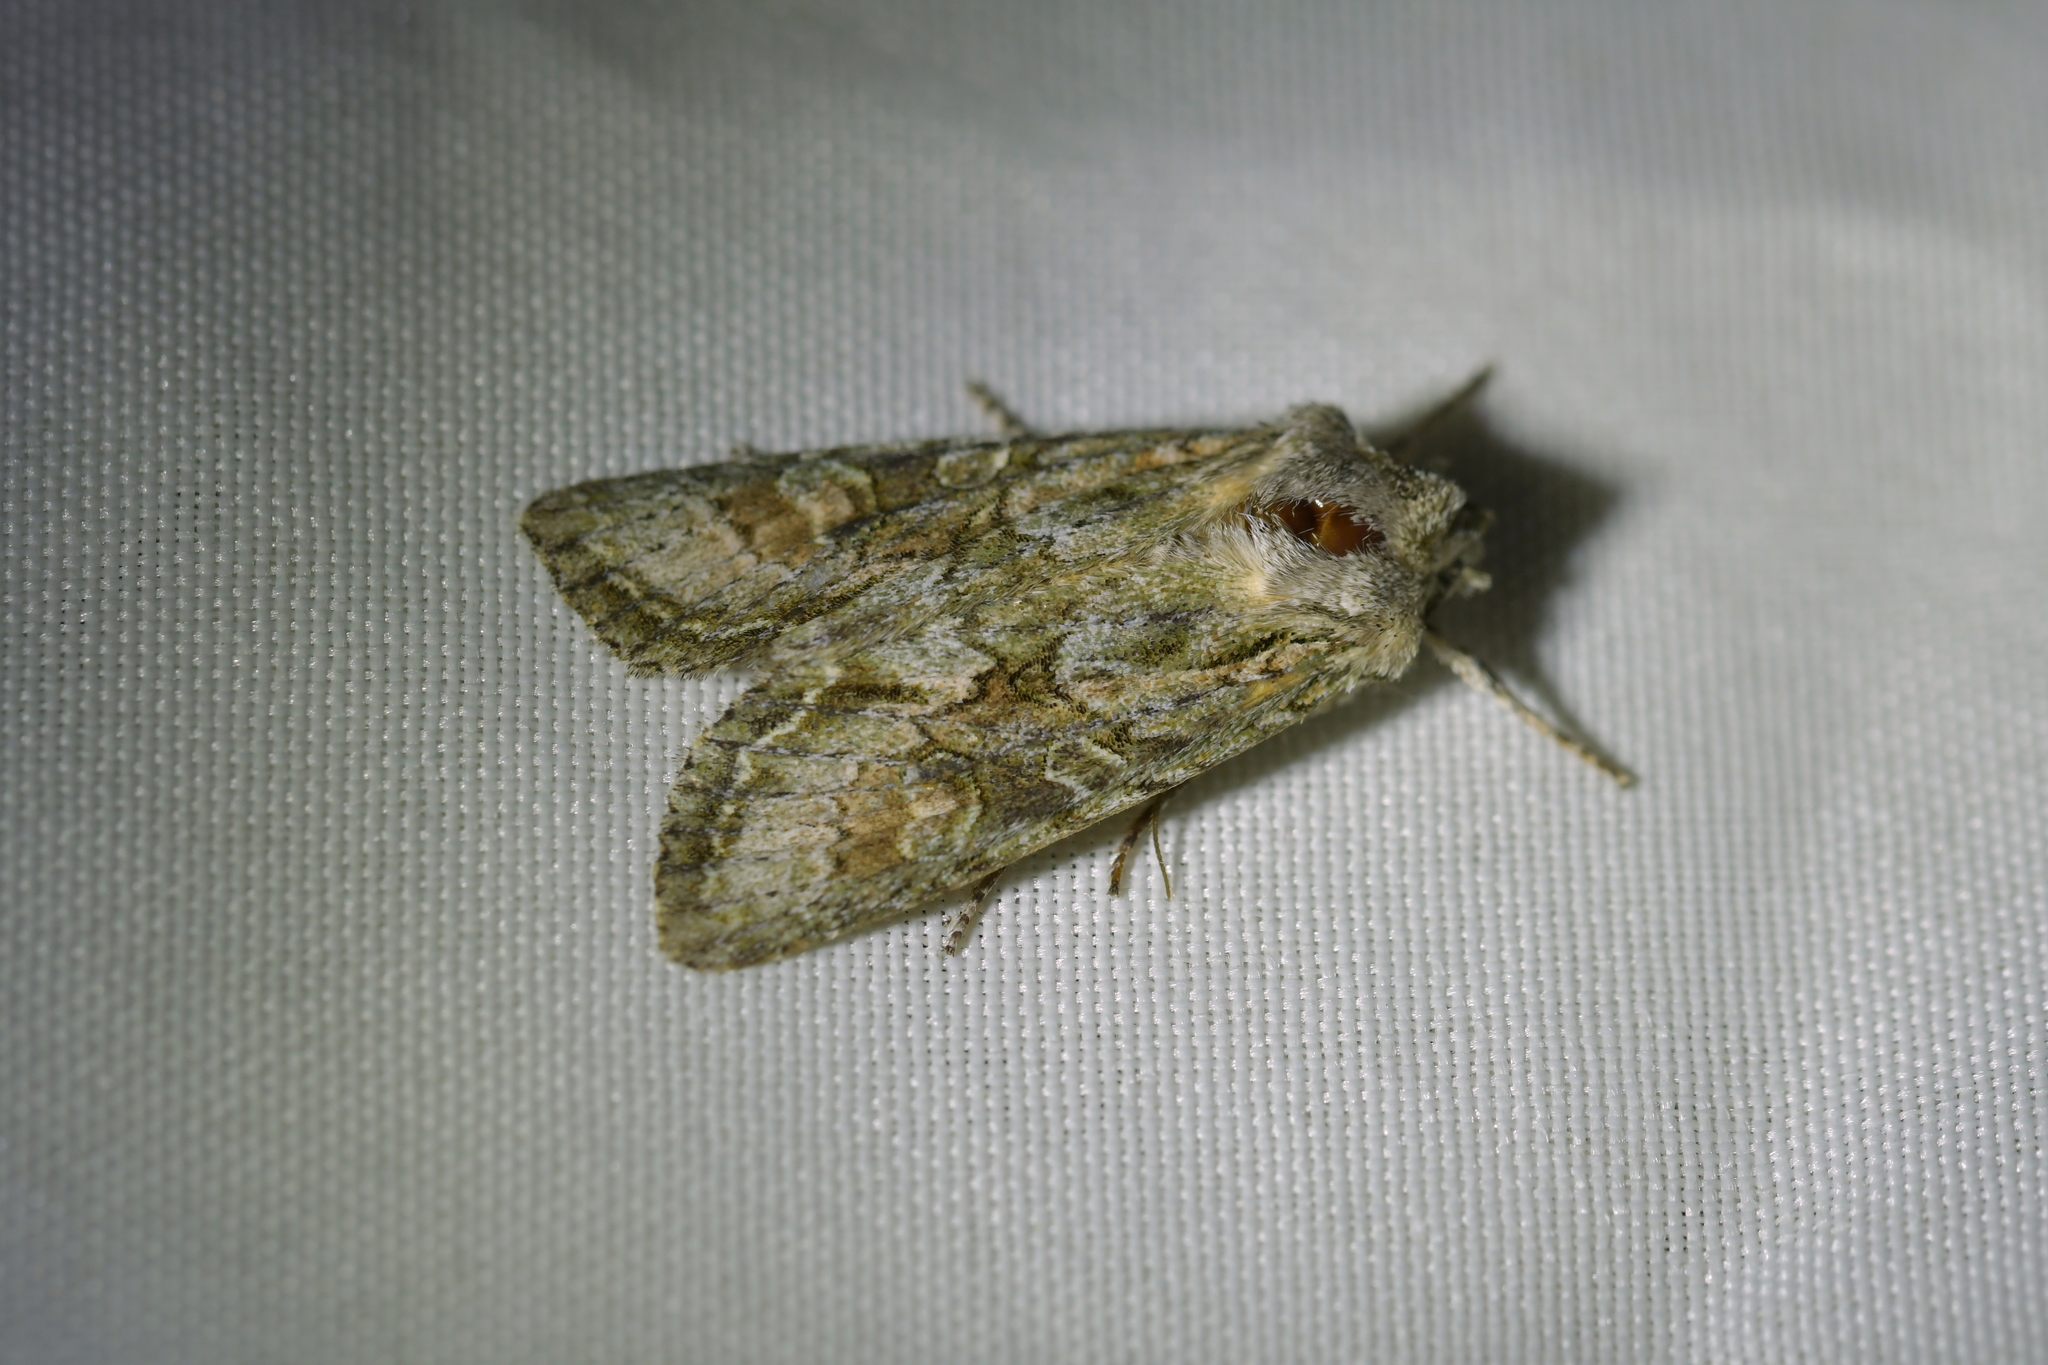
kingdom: Animalia
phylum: Arthropoda
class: Insecta
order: Lepidoptera
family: Noctuidae
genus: Ichneutica
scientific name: Ichneutica mutans
